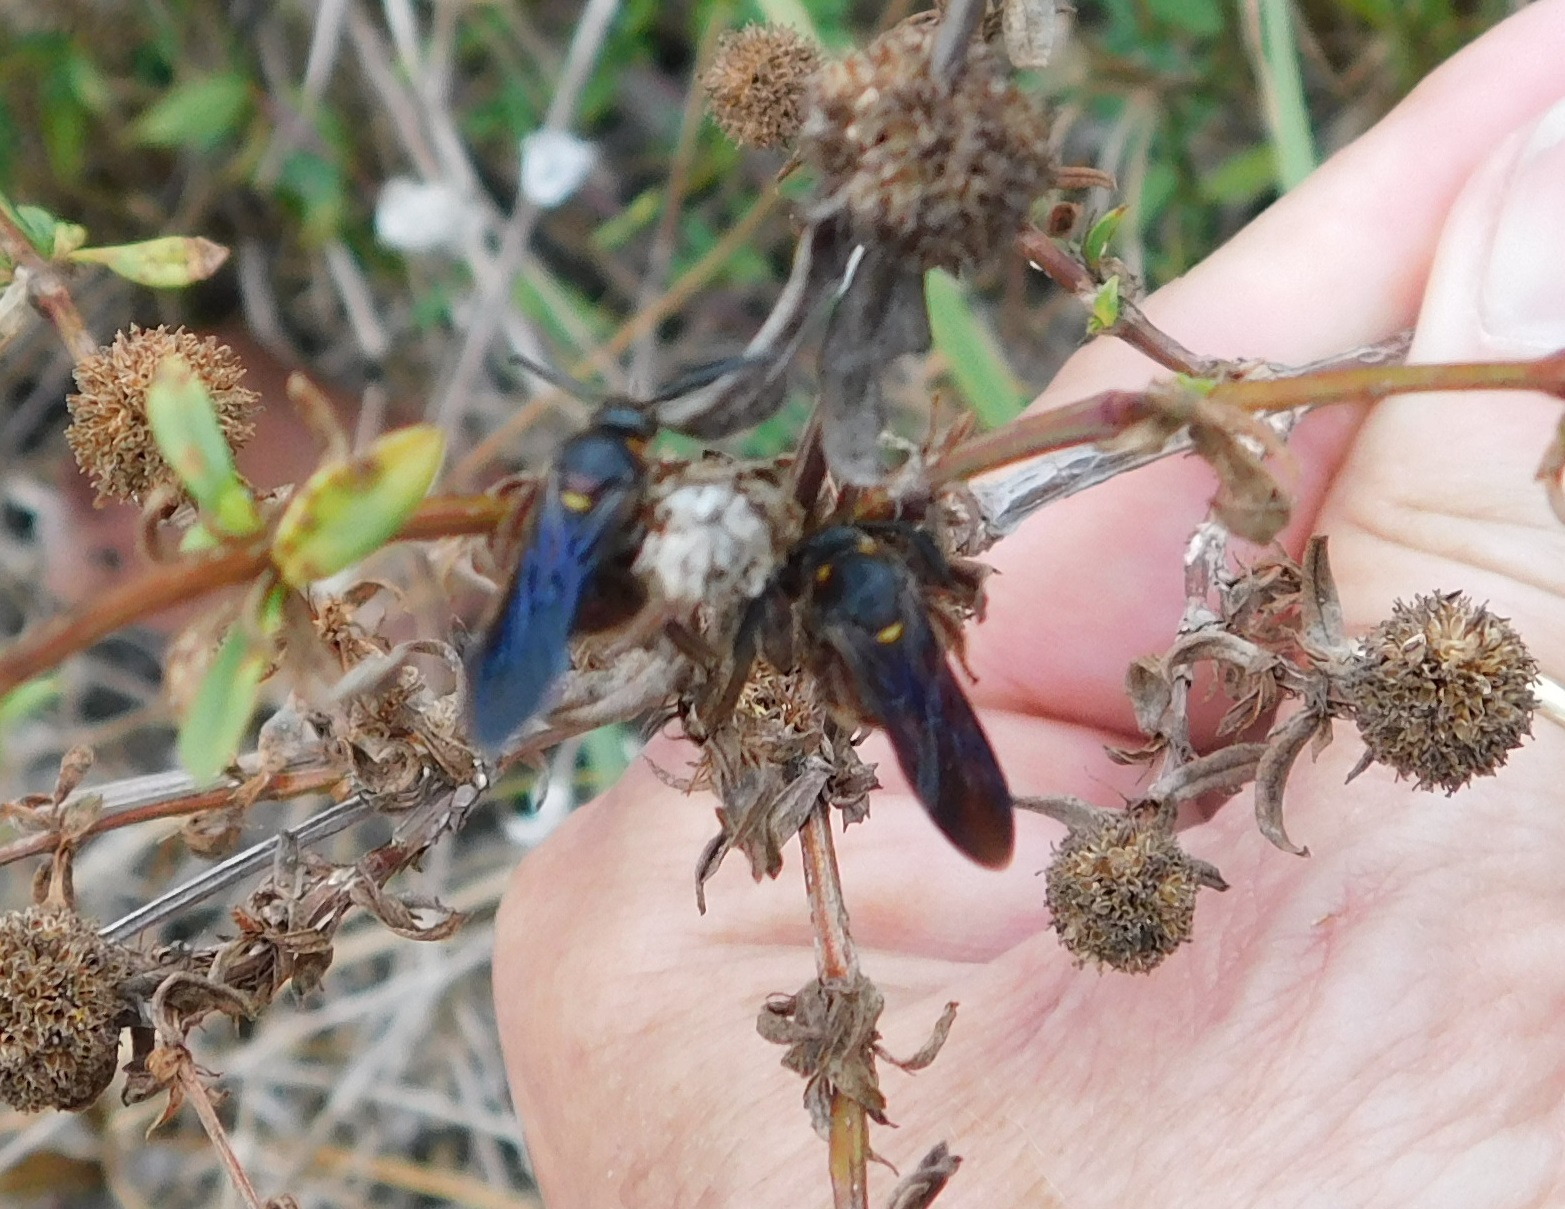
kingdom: Animalia
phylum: Arthropoda
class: Insecta
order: Hymenoptera
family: Scoliidae
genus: Scolia
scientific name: Scolia nobilitata
